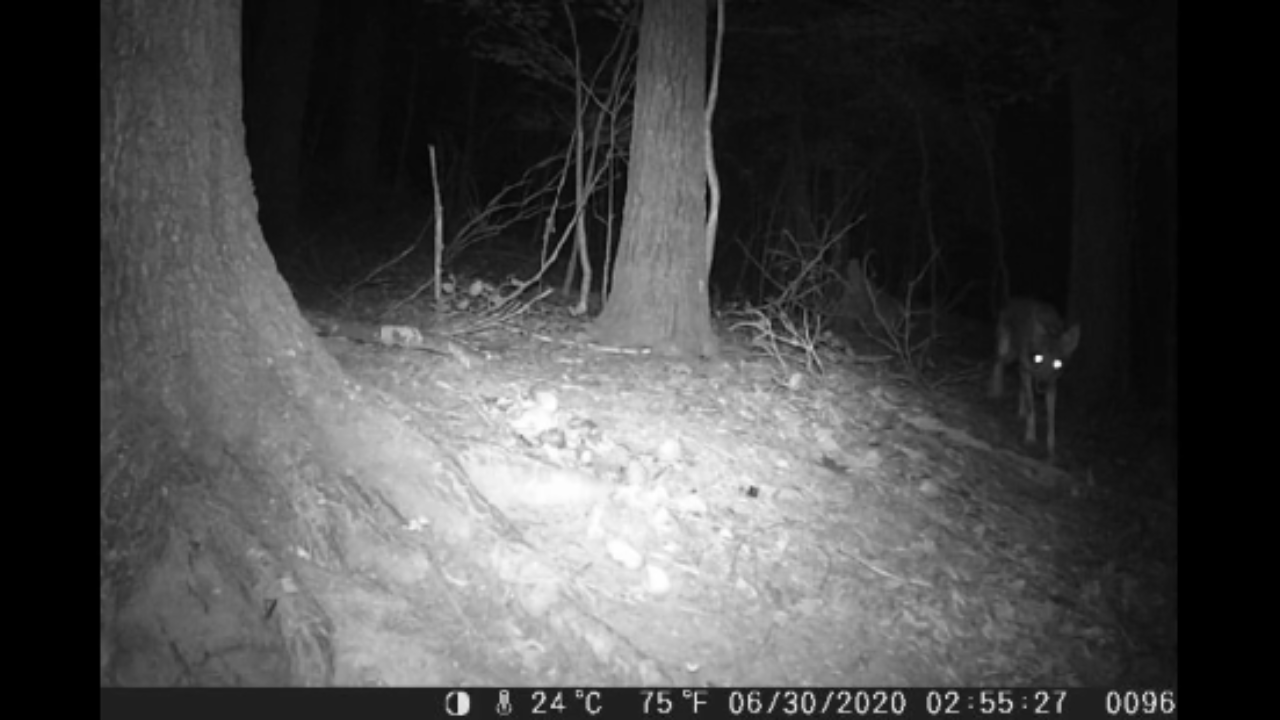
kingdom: Animalia
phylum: Chordata
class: Mammalia
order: Carnivora
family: Canidae
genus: Canis
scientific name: Canis latrans
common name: Coyote
